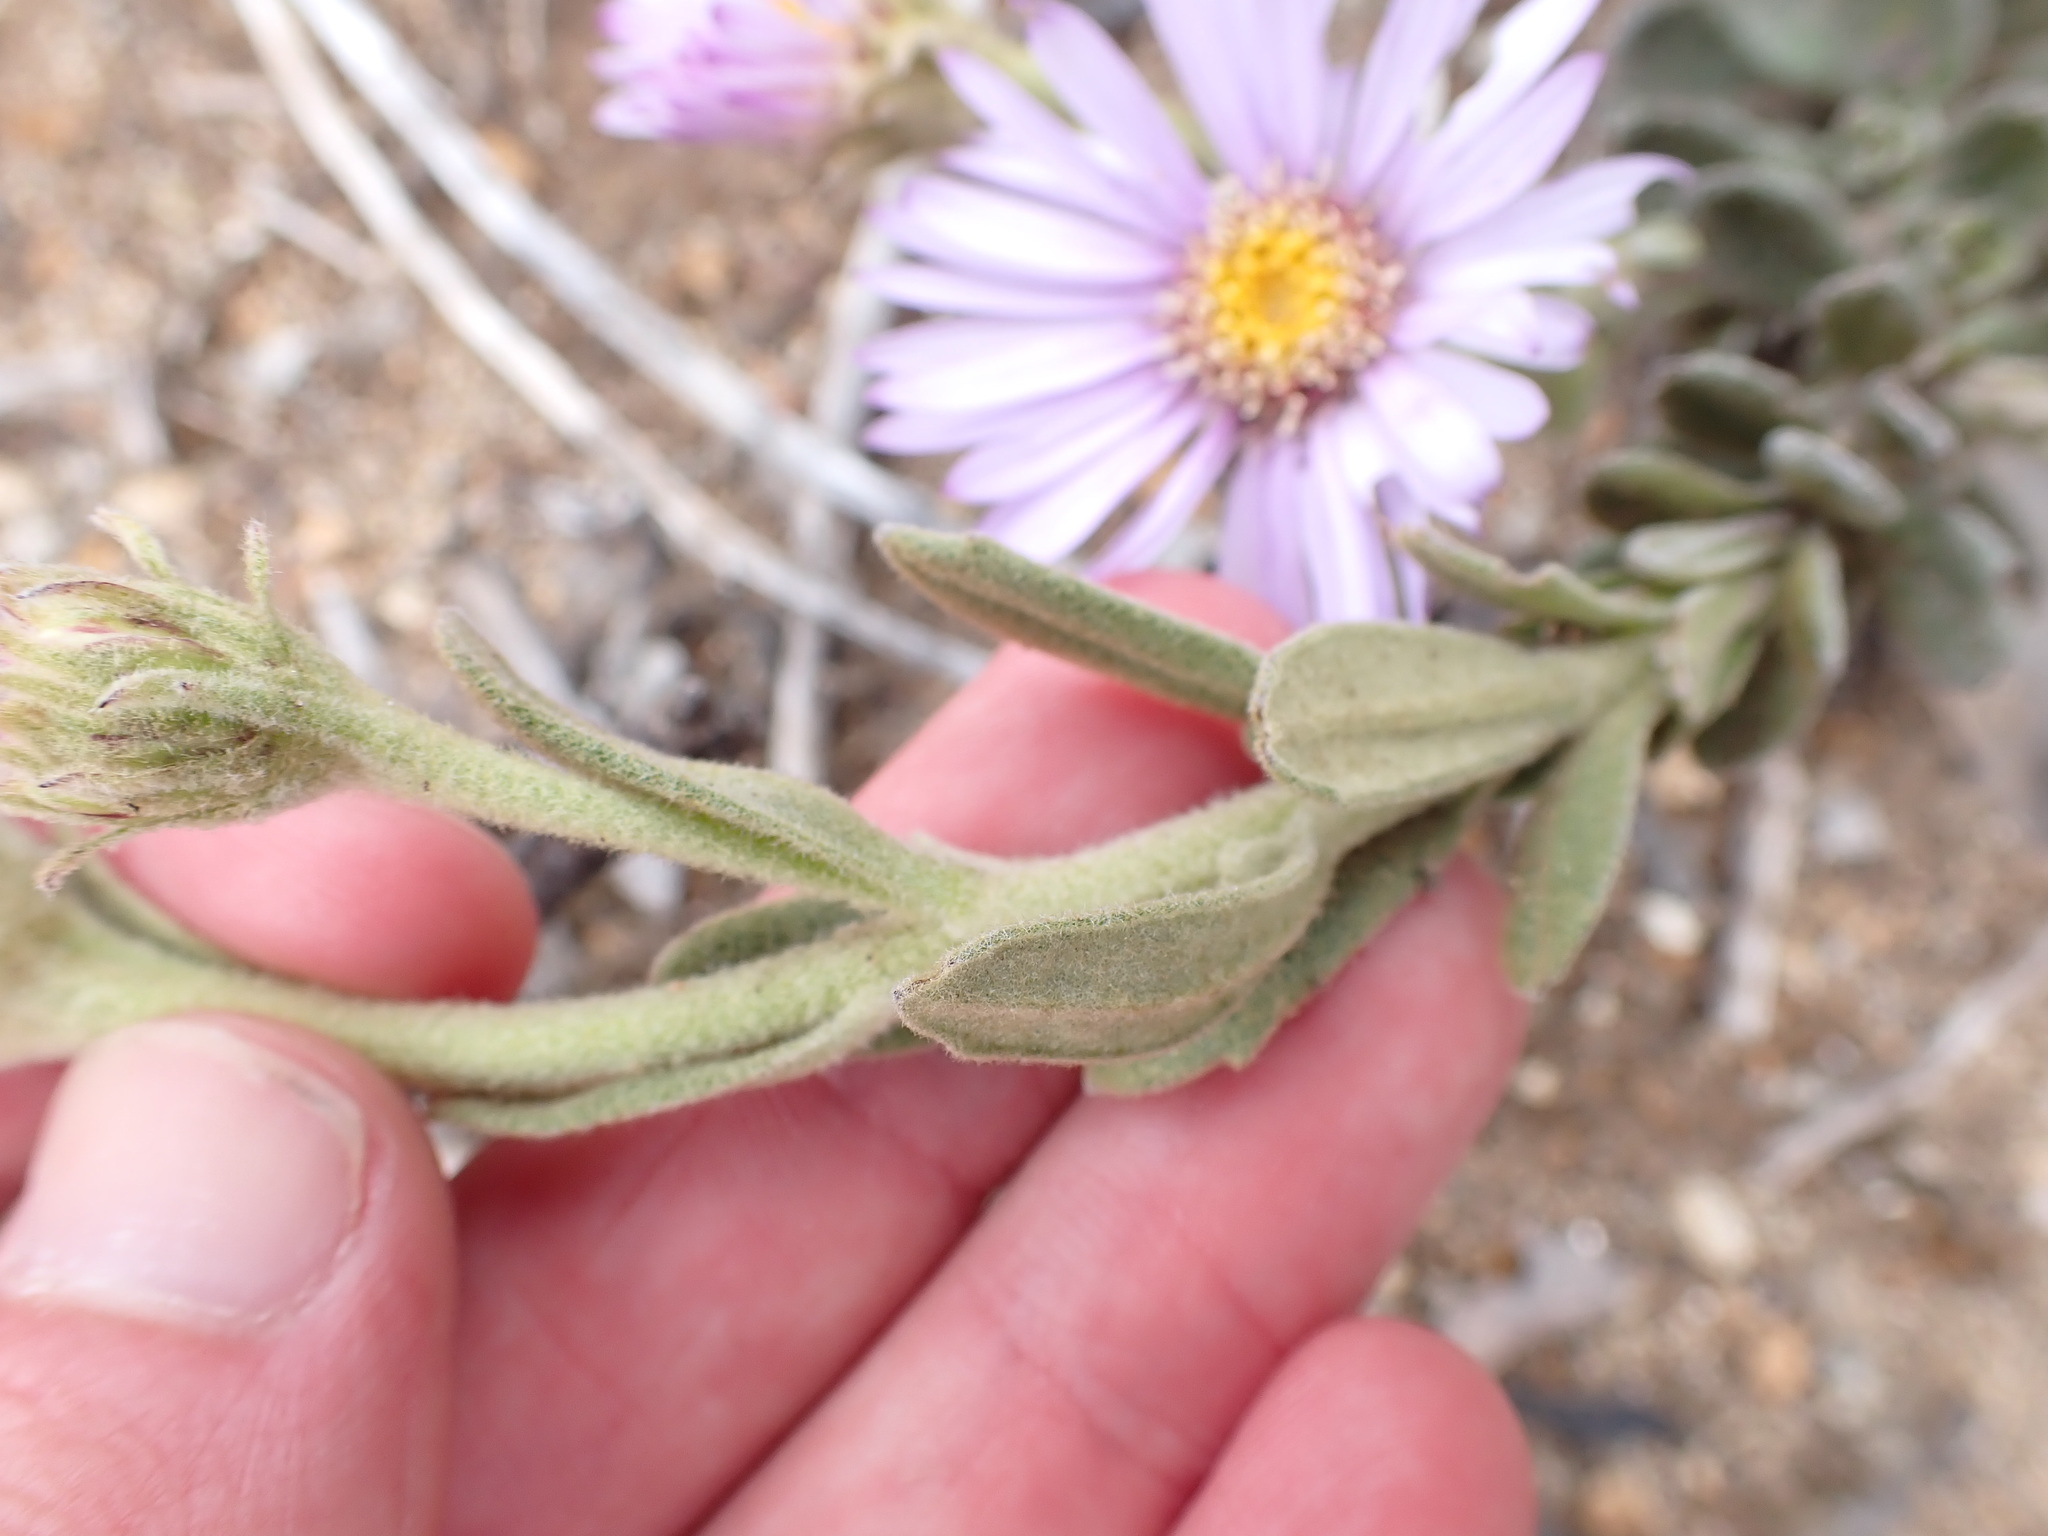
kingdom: Plantae
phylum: Tracheophyta
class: Magnoliopsida
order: Asterales
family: Asteraceae
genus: Olearia
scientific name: Olearia frostii
